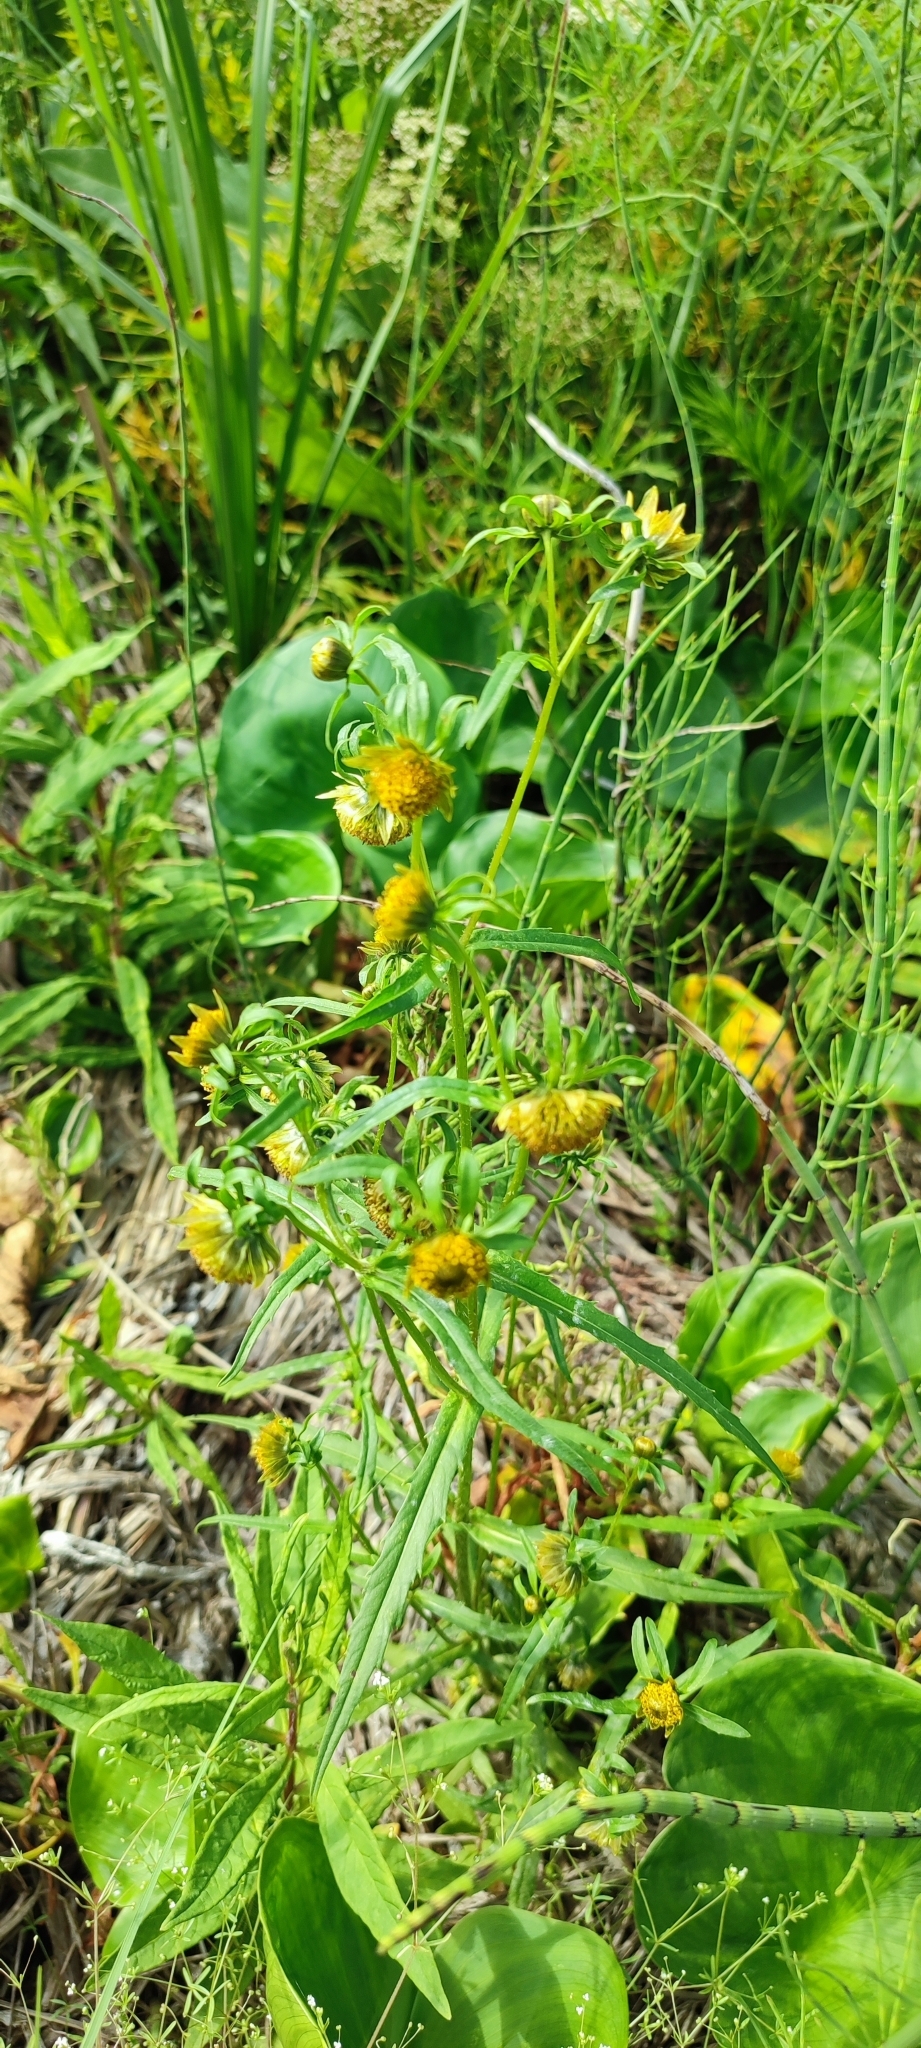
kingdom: Plantae
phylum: Tracheophyta
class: Magnoliopsida
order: Asterales
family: Asteraceae
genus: Bidens
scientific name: Bidens cernua
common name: Nodding bur-marigold
